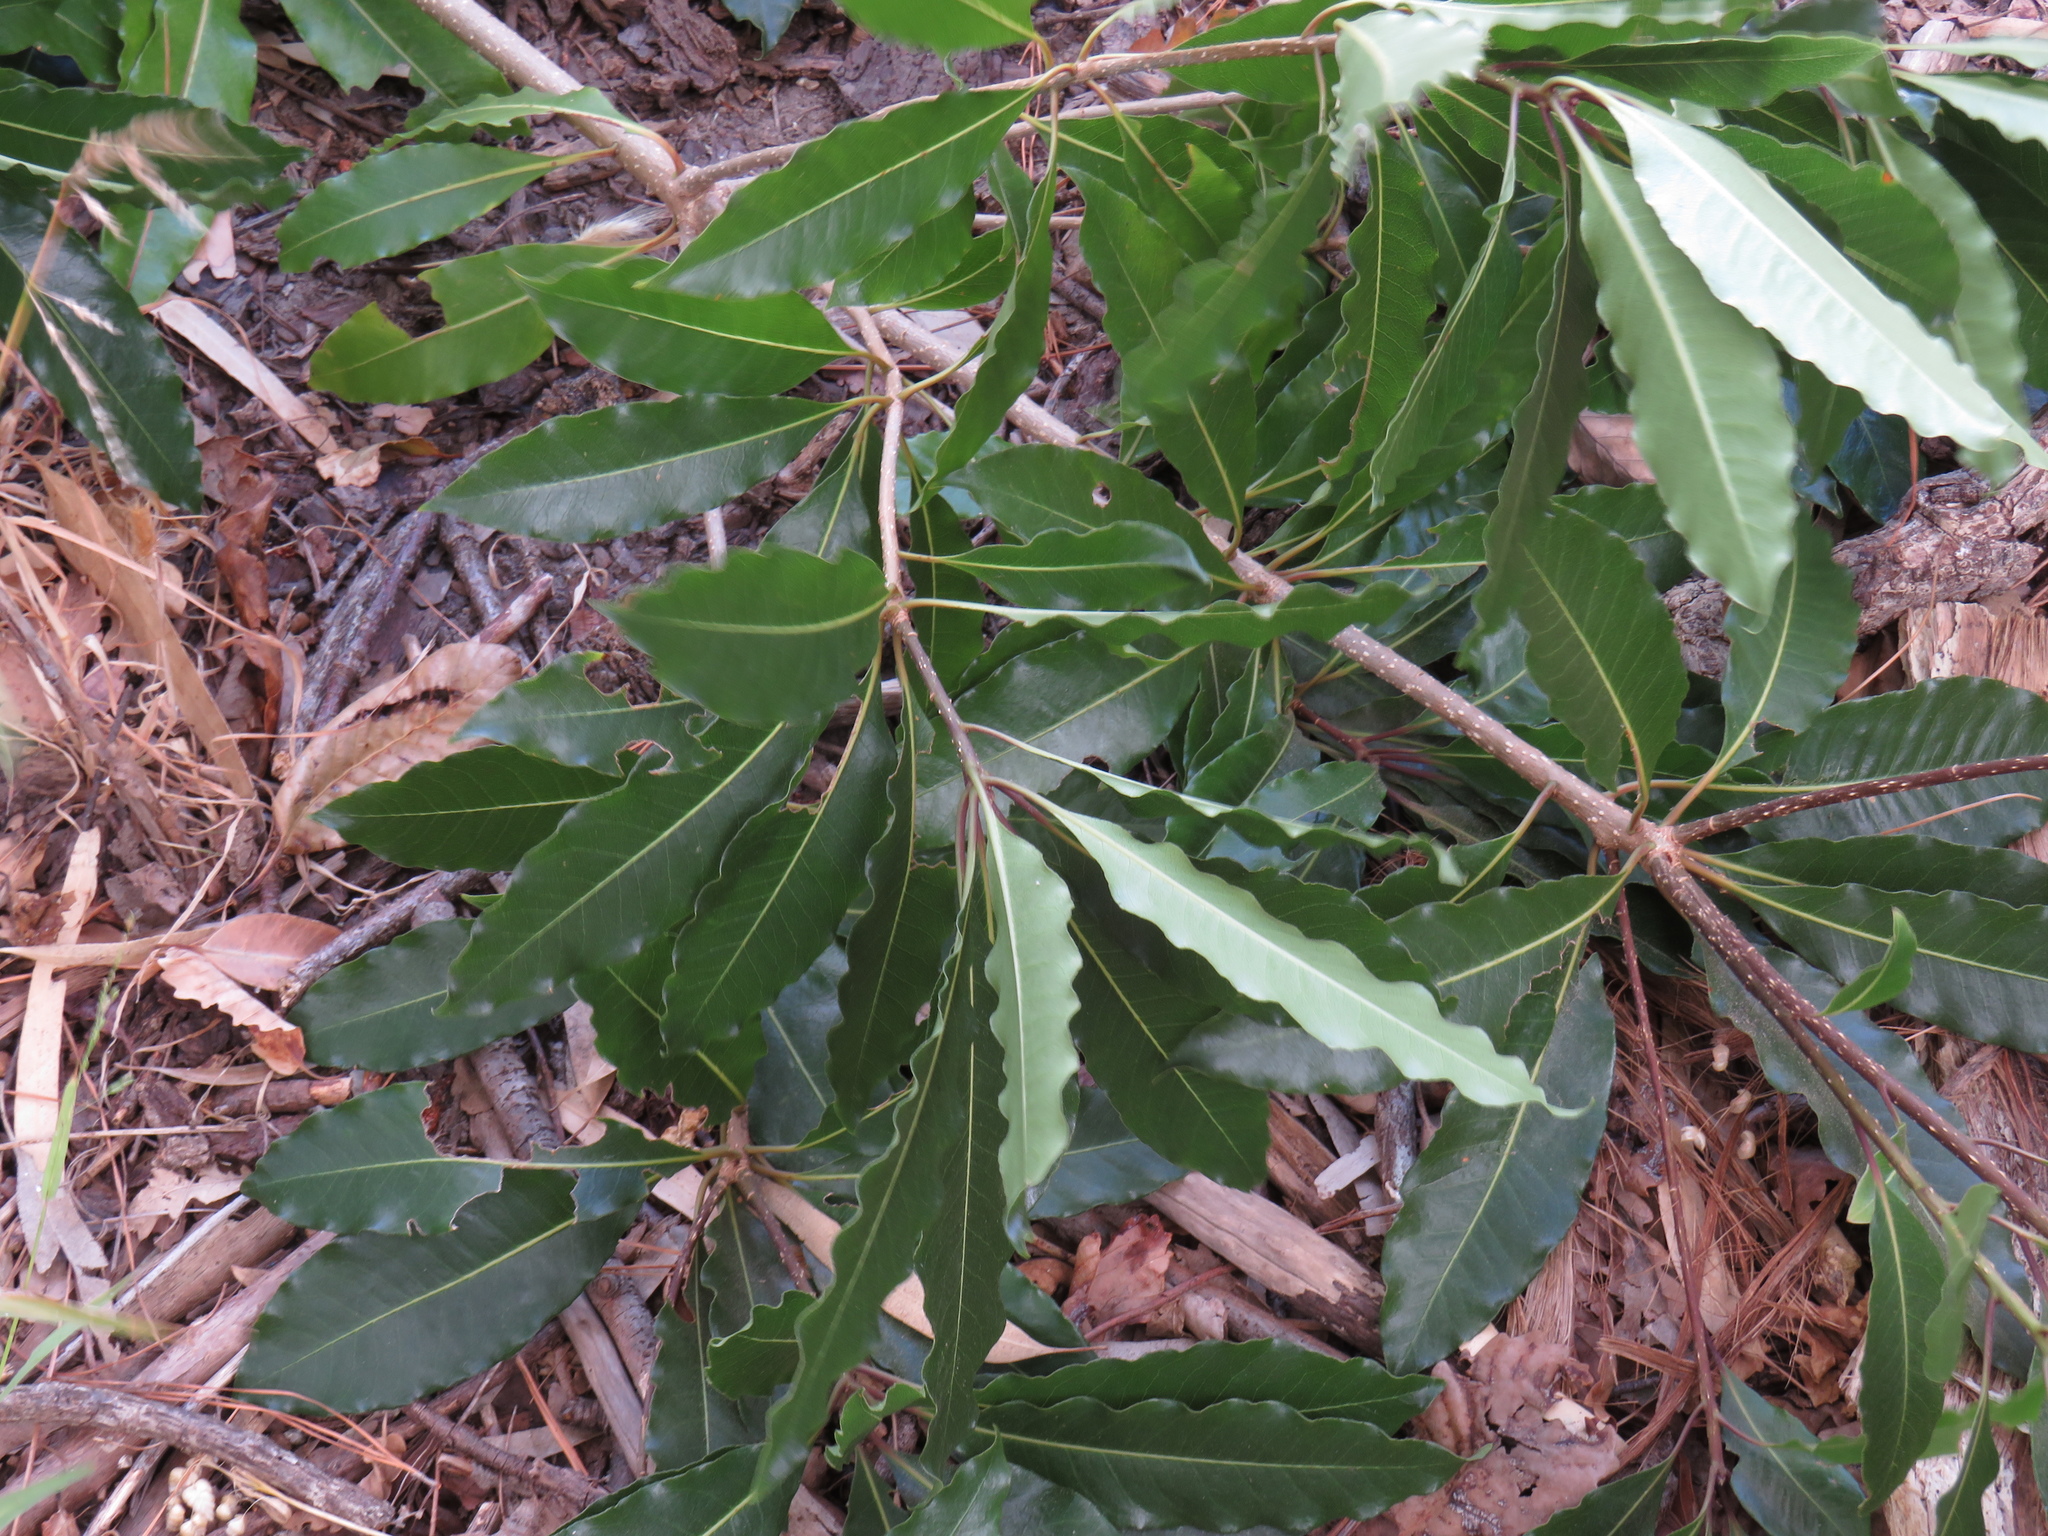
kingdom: Plantae
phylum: Tracheophyta
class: Magnoliopsida
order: Apiales
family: Pittosporaceae
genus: Pittosporum
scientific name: Pittosporum undulatum
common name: Australian cheesewood
